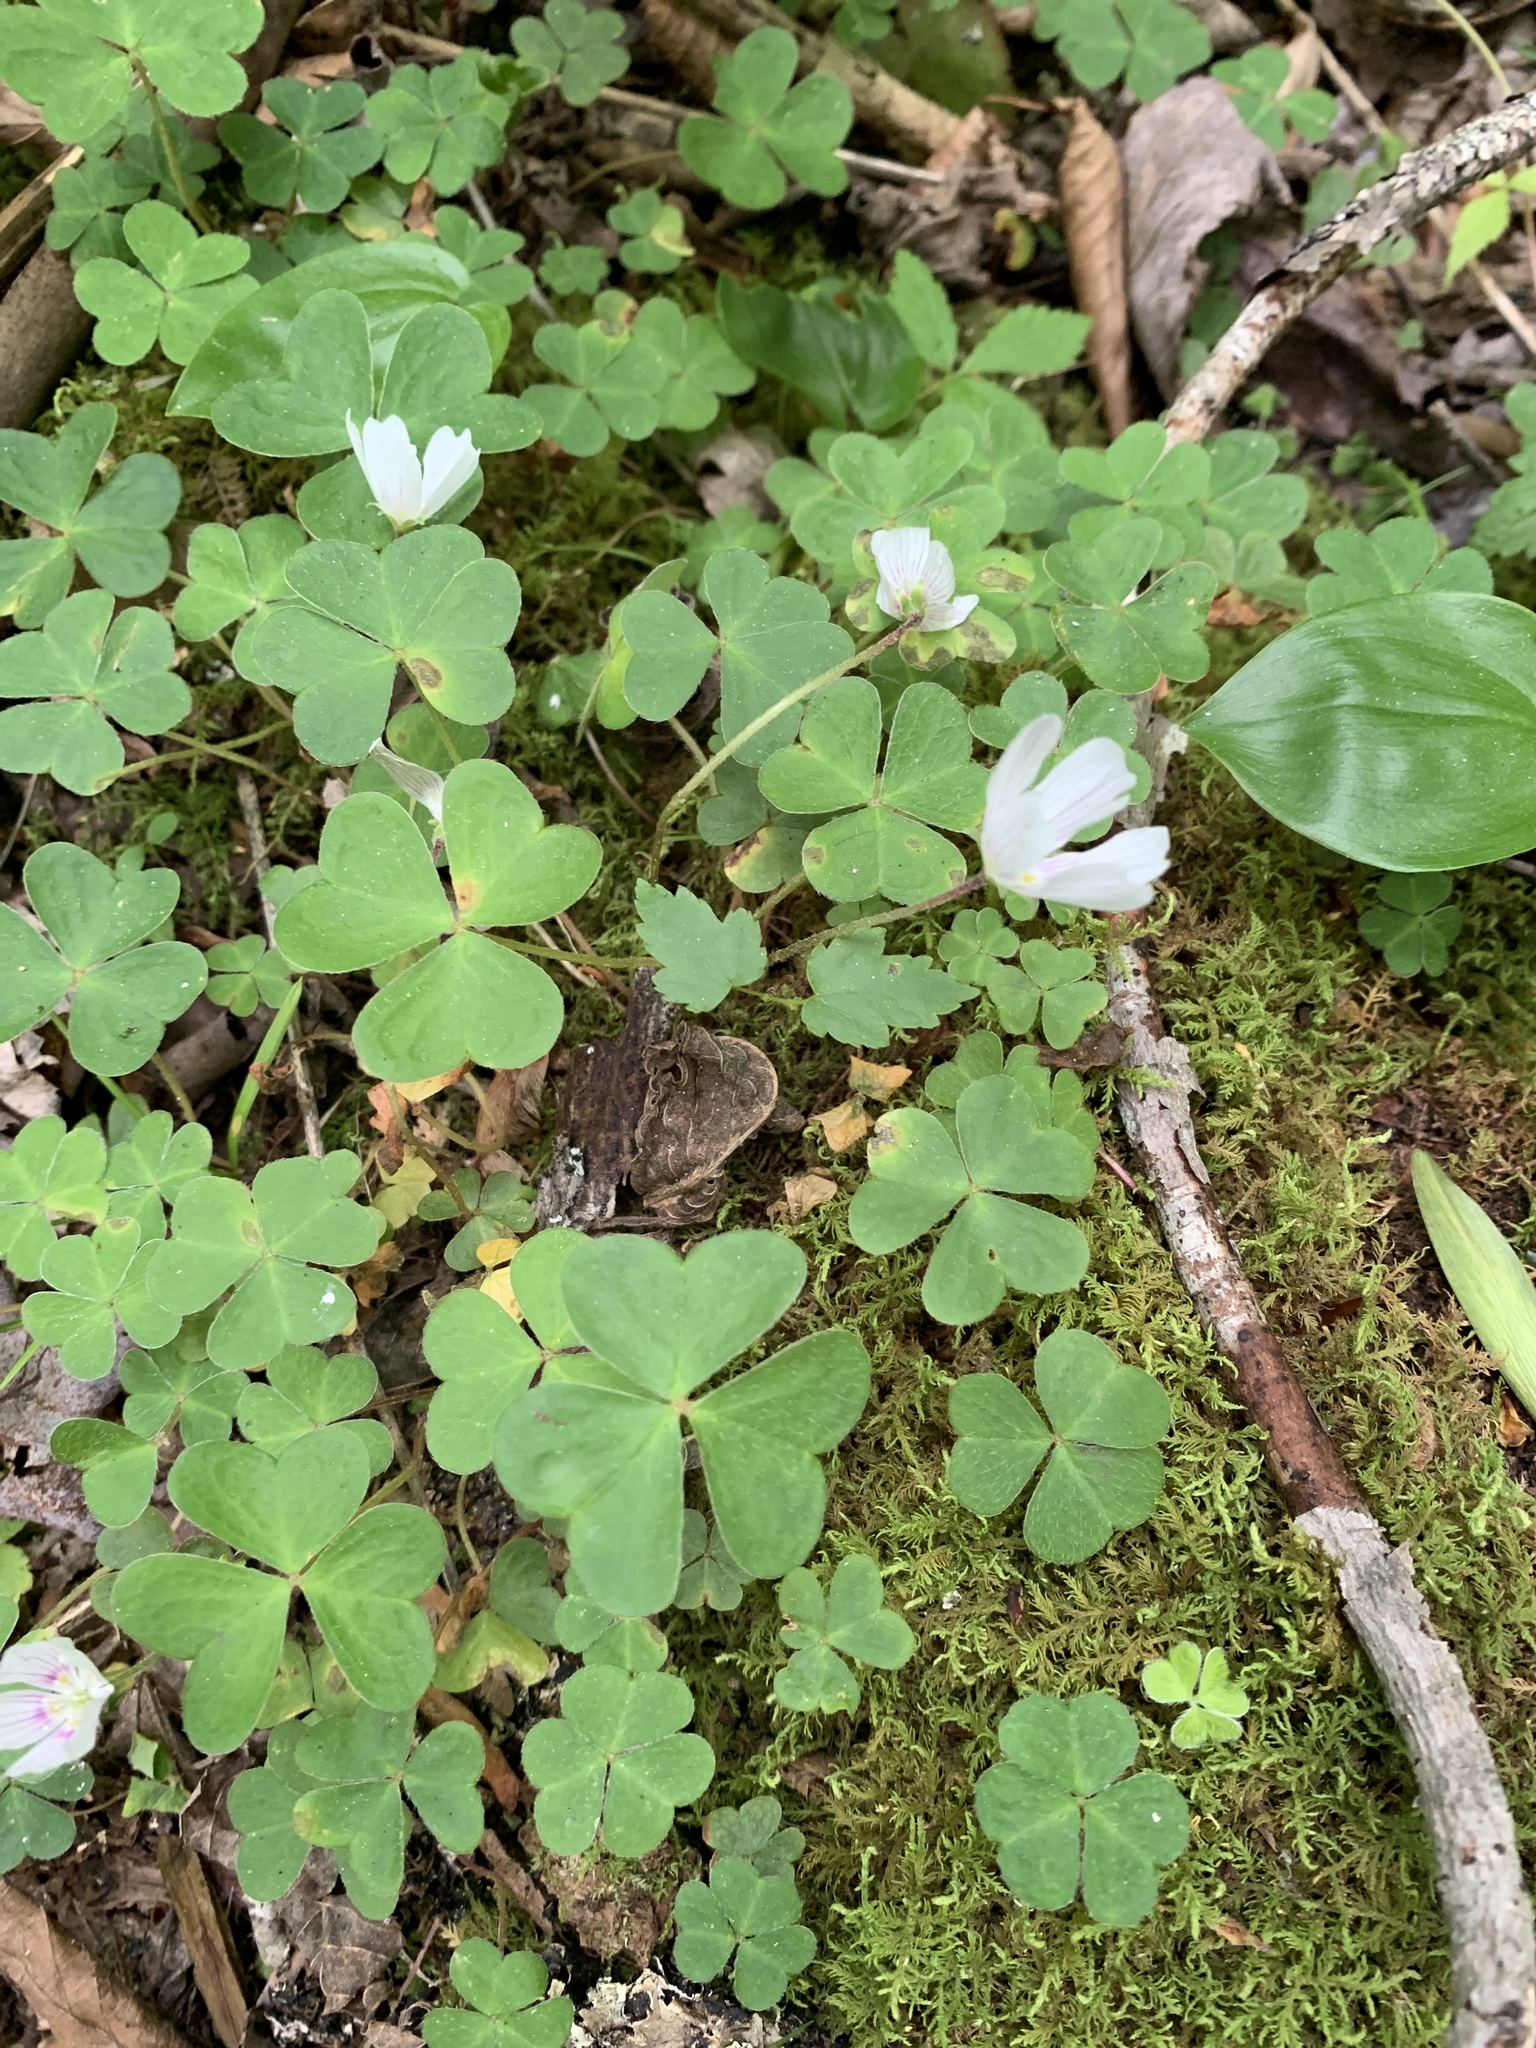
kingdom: Plantae
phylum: Tracheophyta
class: Magnoliopsida
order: Oxalidales
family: Oxalidaceae
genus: Oxalis
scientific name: Oxalis montana
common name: American wood-sorrel
